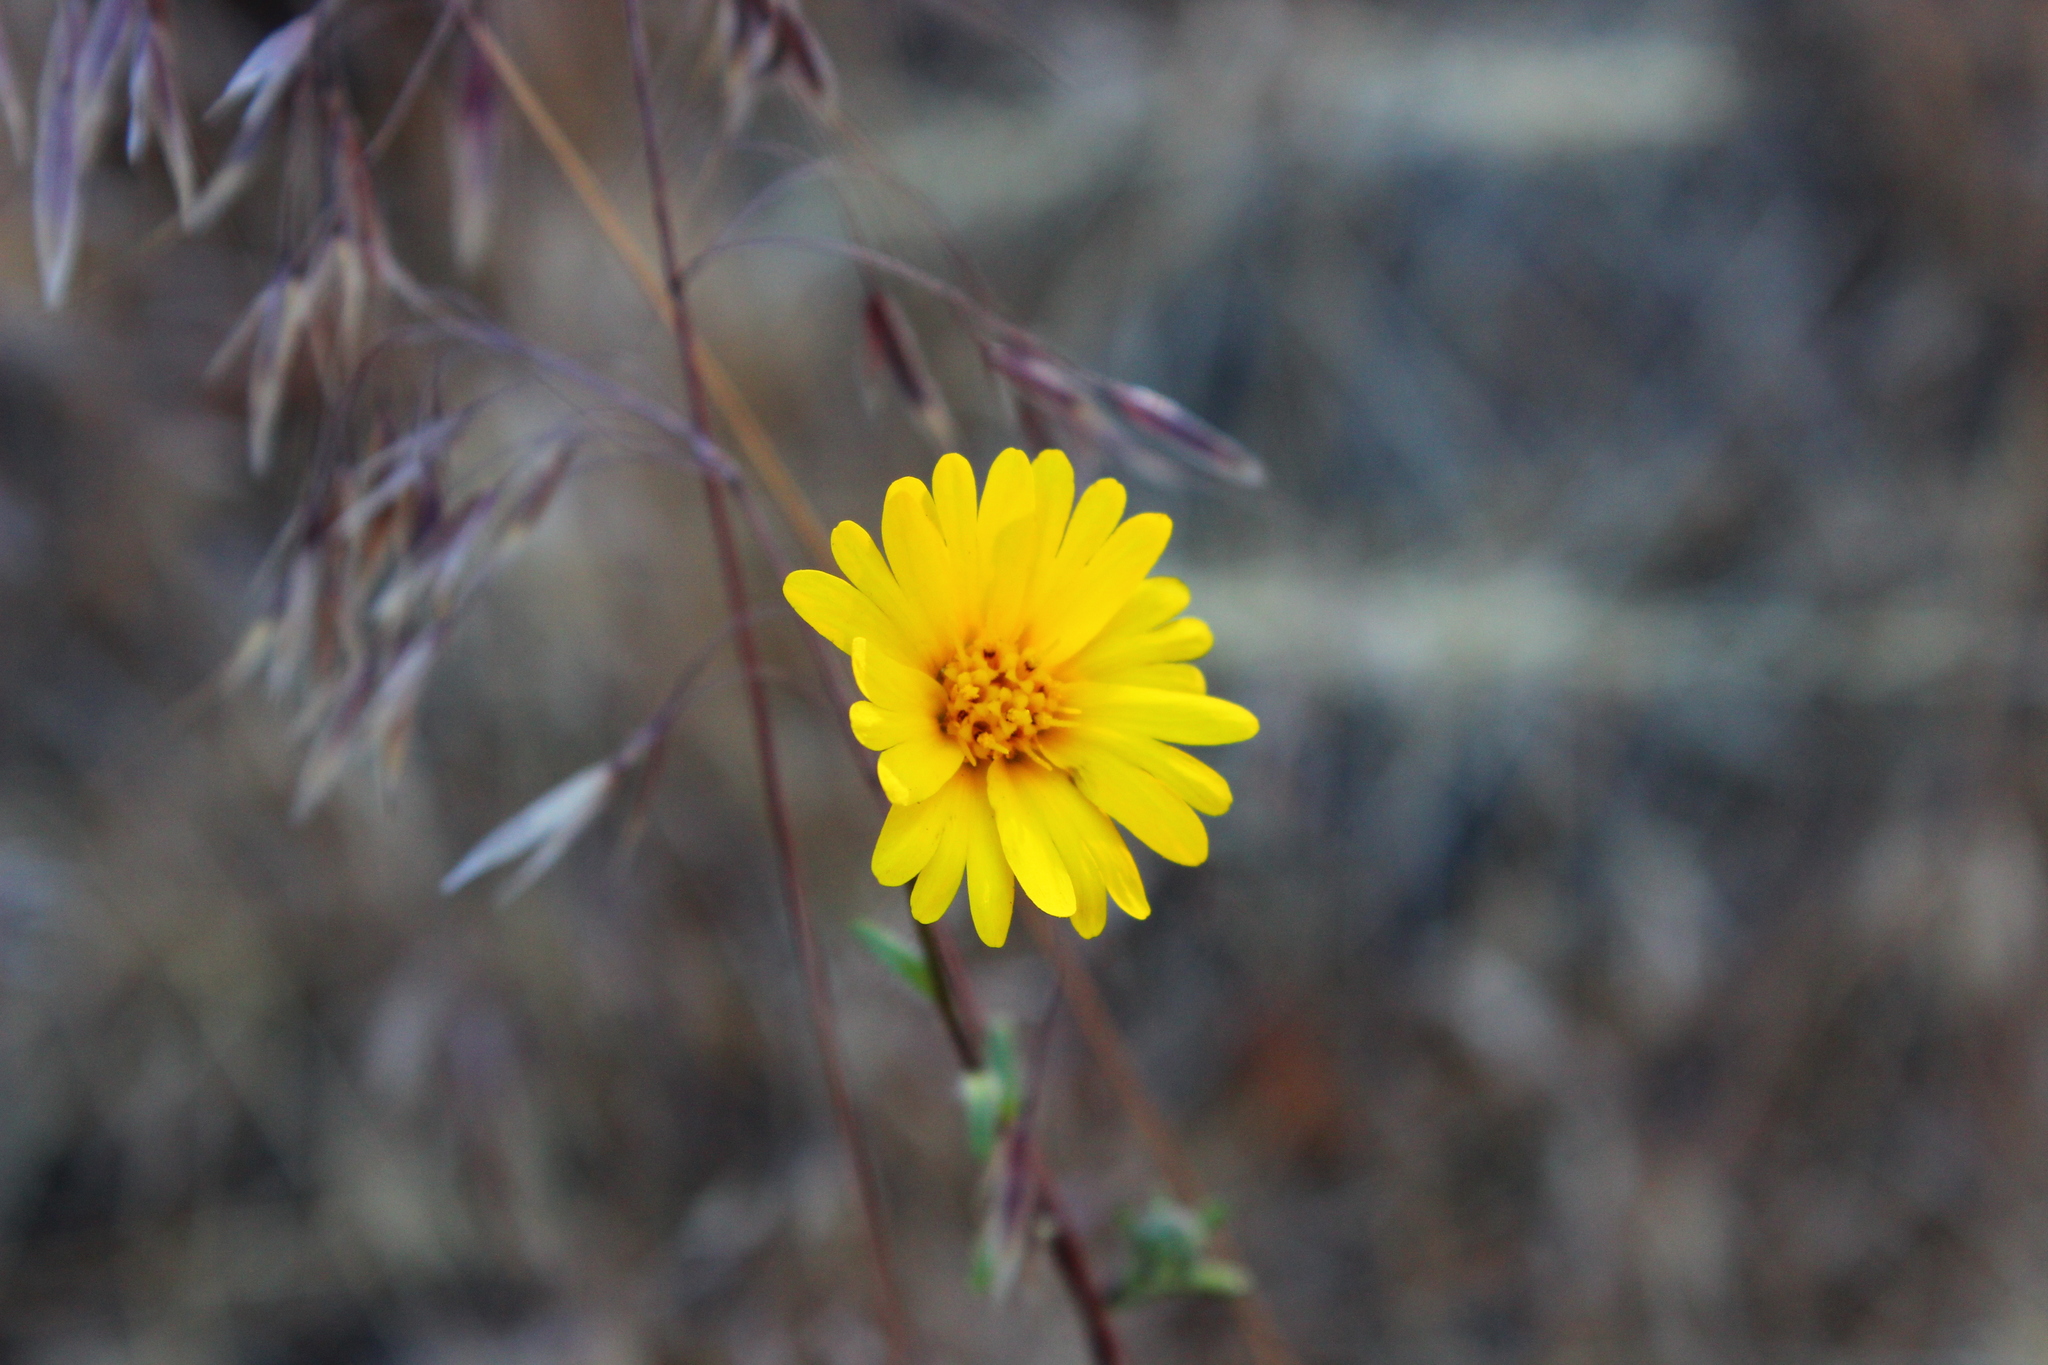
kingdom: Plantae
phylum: Tracheophyta
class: Magnoliopsida
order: Asterales
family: Asteraceae
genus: Madia
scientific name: Madia elegans
